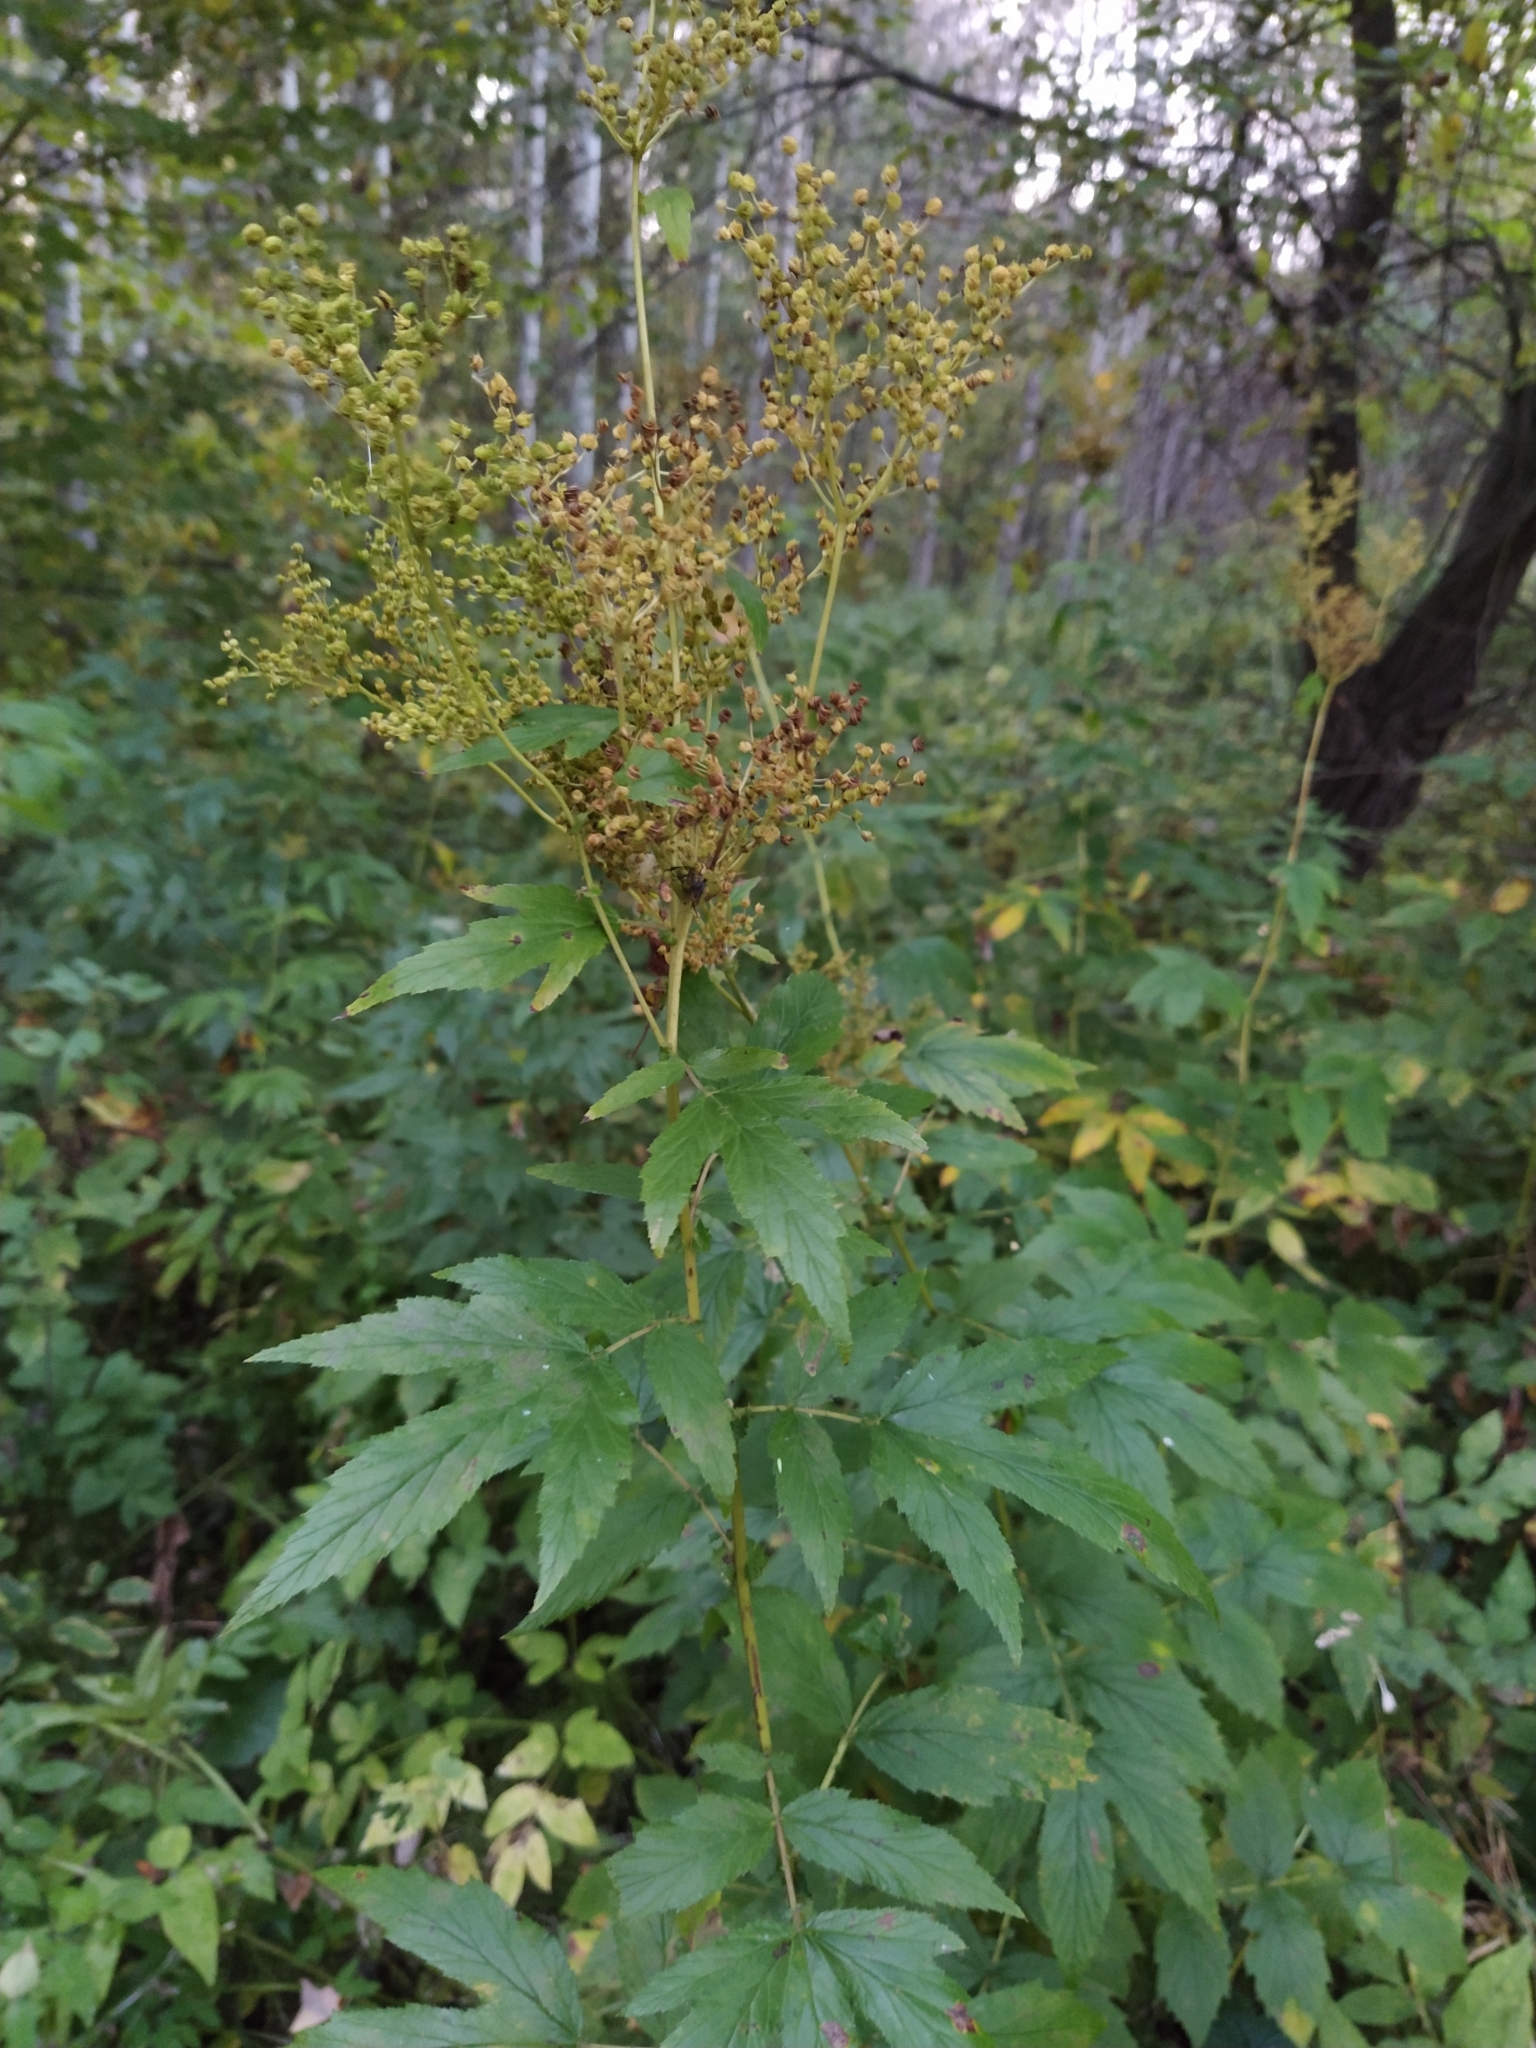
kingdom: Plantae
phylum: Tracheophyta
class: Magnoliopsida
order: Rosales
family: Rosaceae
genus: Filipendula
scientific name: Filipendula ulmaria
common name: Meadowsweet
